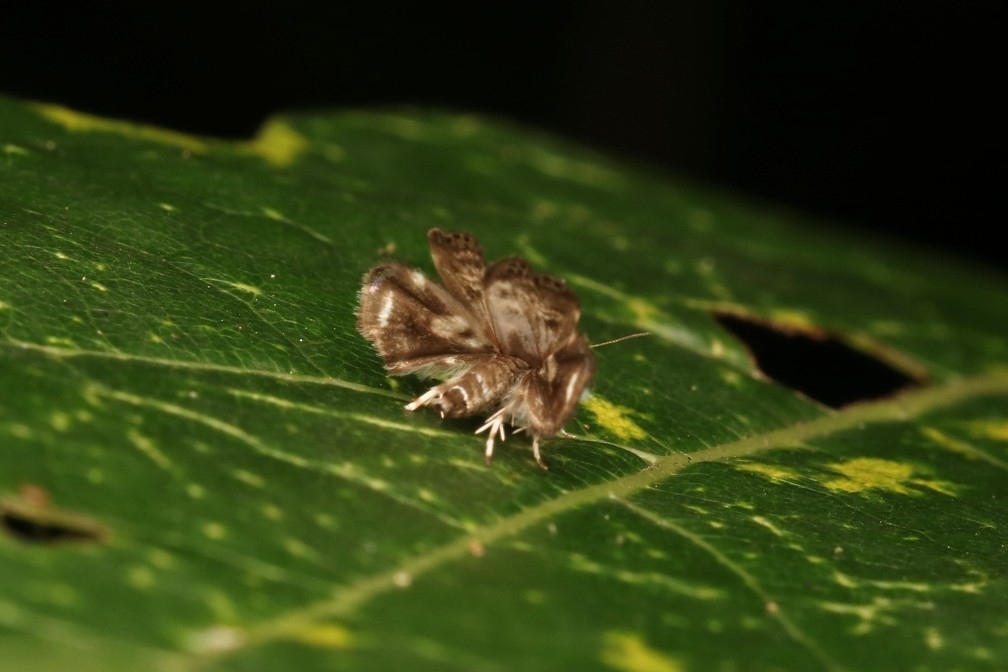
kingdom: Animalia
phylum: Arthropoda
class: Insecta
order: Lepidoptera
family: Choreutidae
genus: Brenthia
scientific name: Brenthia pavonacella
